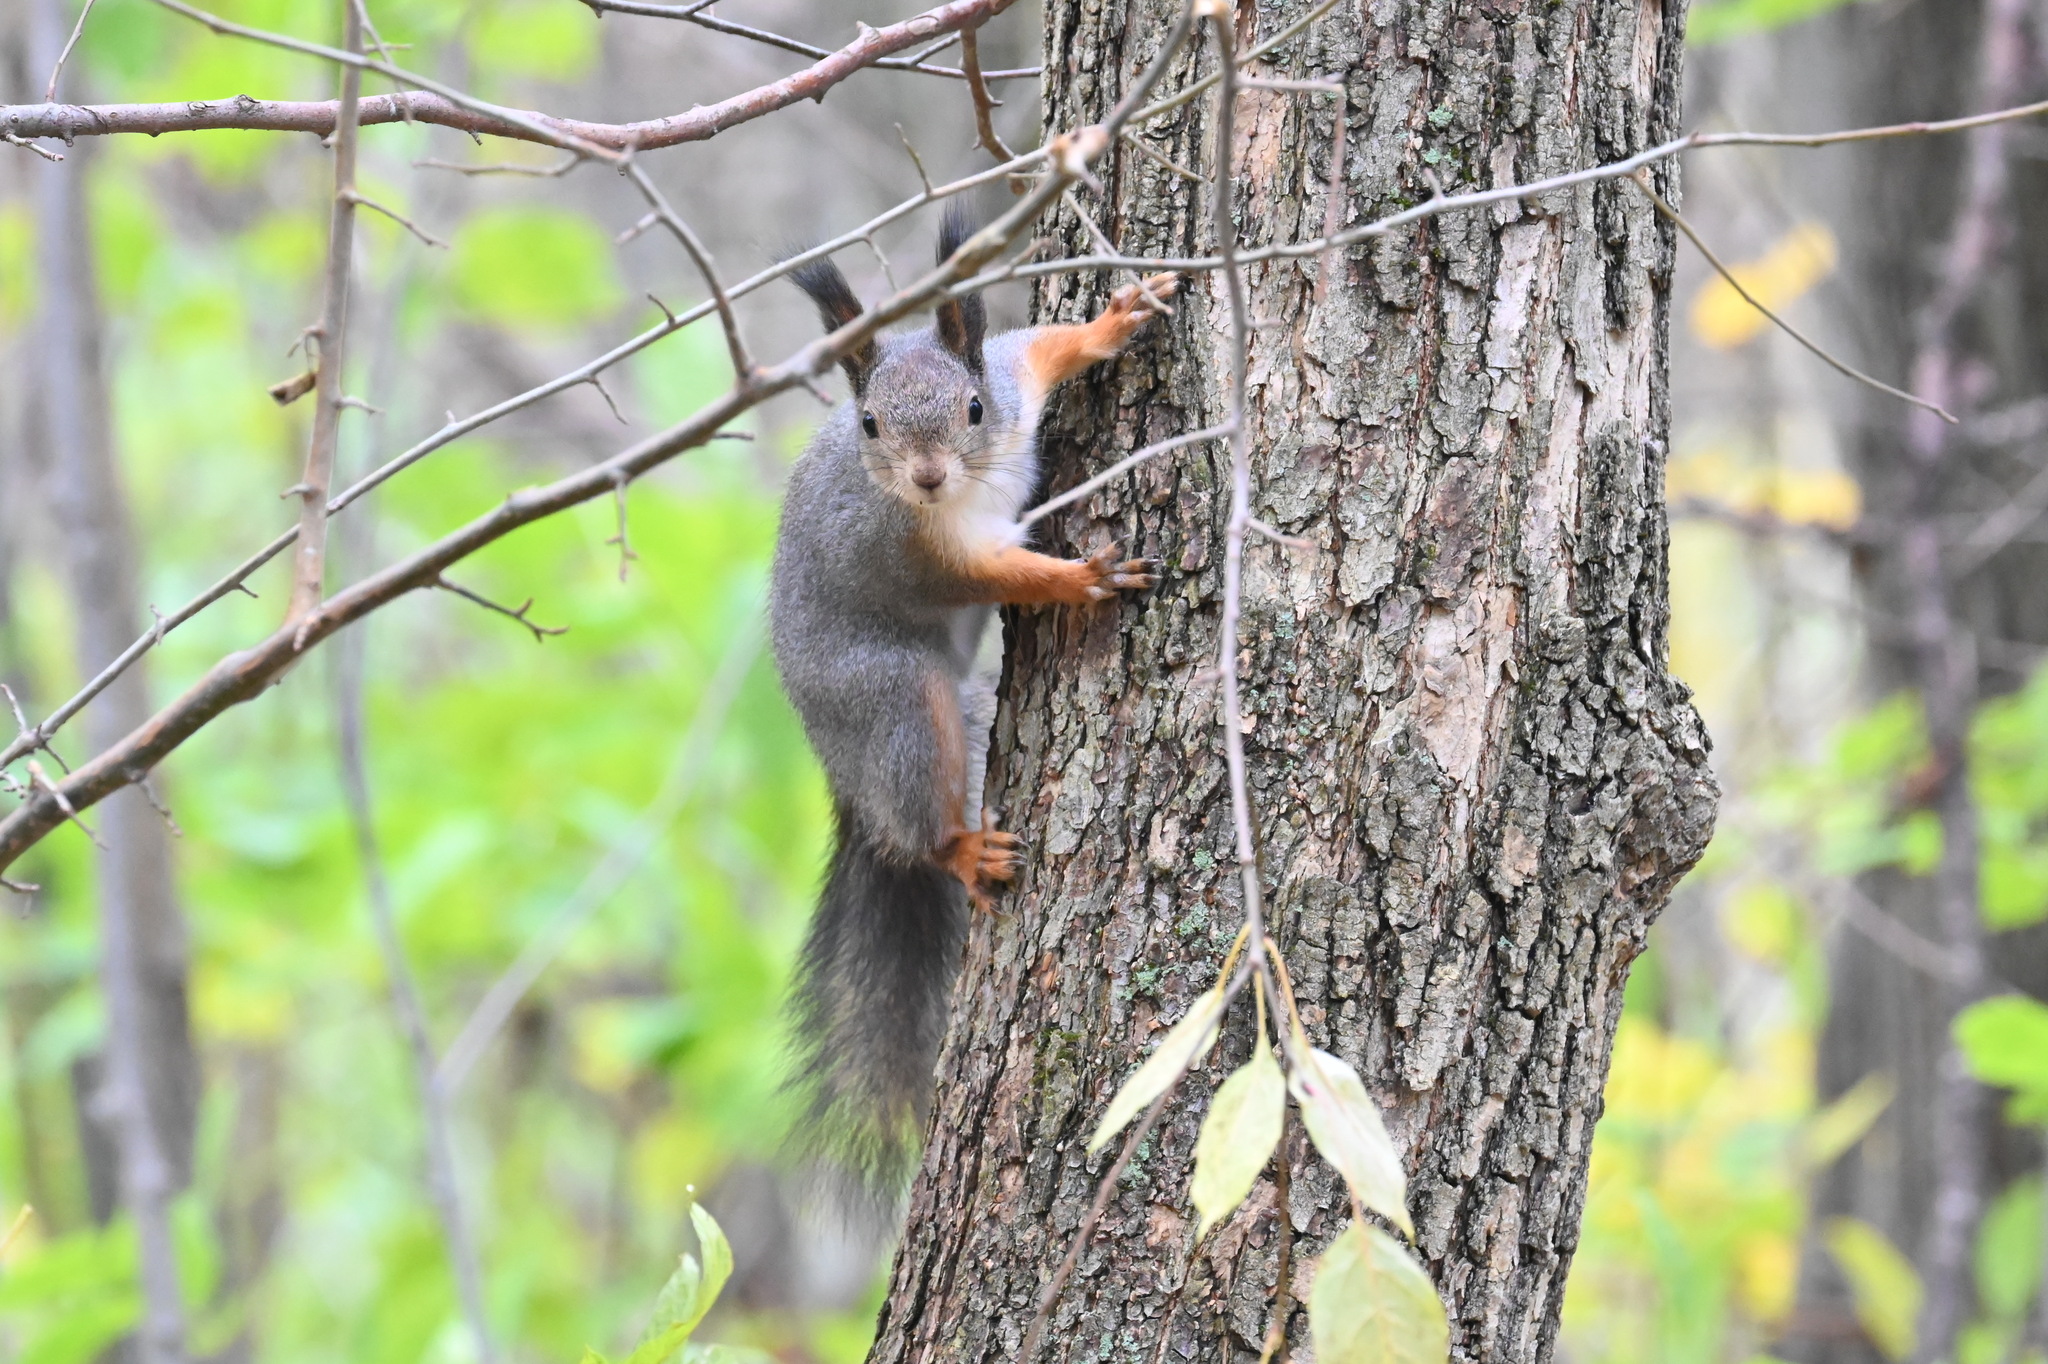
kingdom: Animalia
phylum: Chordata
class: Mammalia
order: Rodentia
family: Sciuridae
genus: Sciurus
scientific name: Sciurus vulgaris
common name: Eurasian red squirrel
